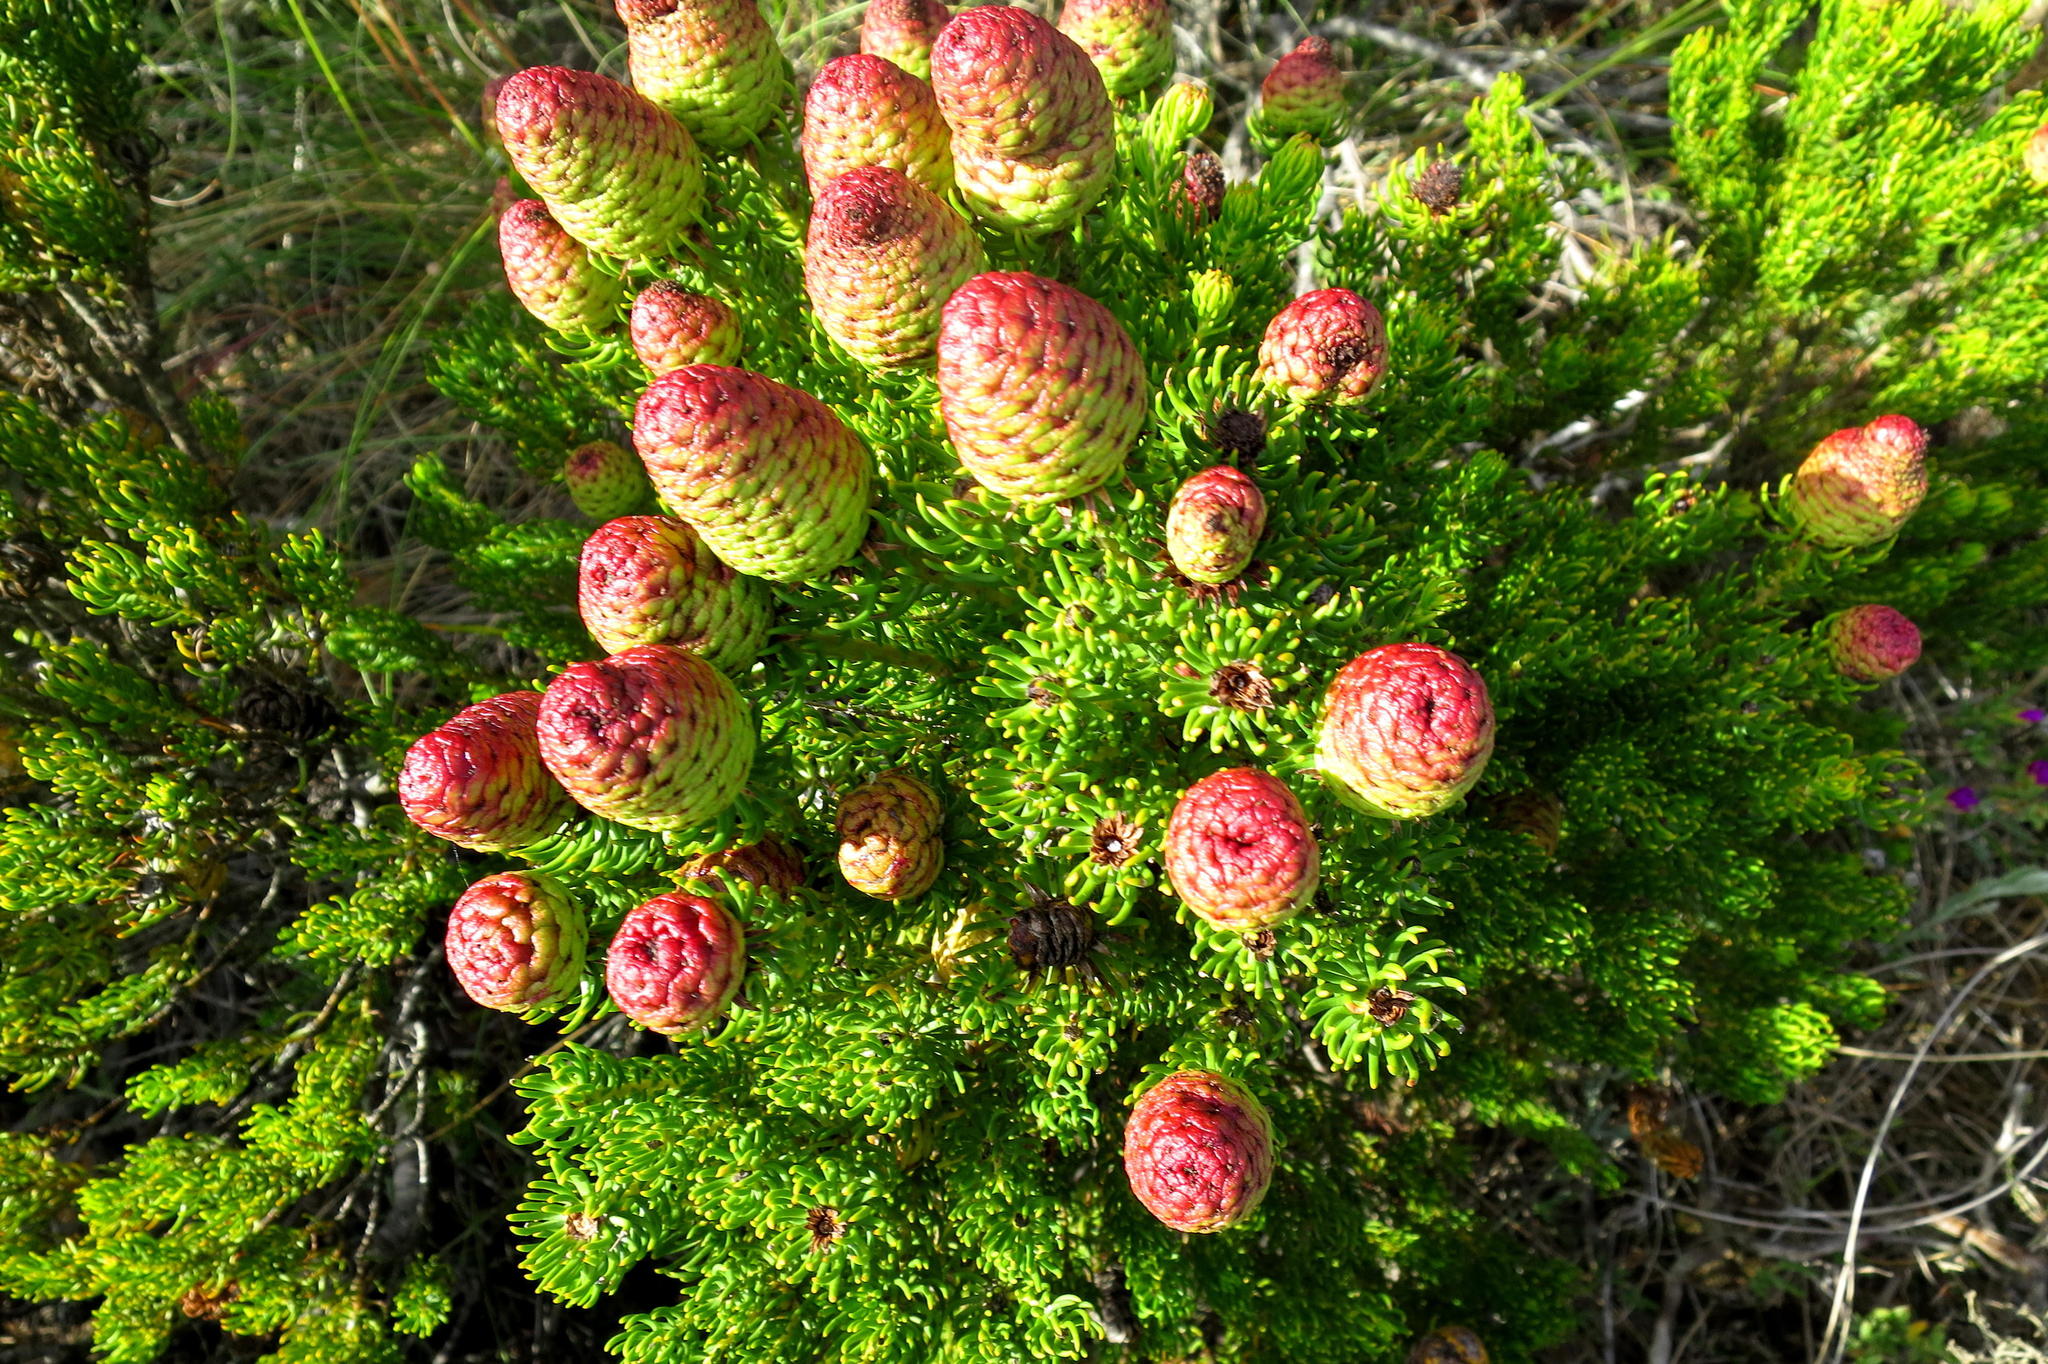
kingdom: Plantae
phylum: Tracheophyta
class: Magnoliopsida
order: Proteales
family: Proteaceae
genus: Leucadendron
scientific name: Leucadendron teretifolium
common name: Needle-leaf conebush
